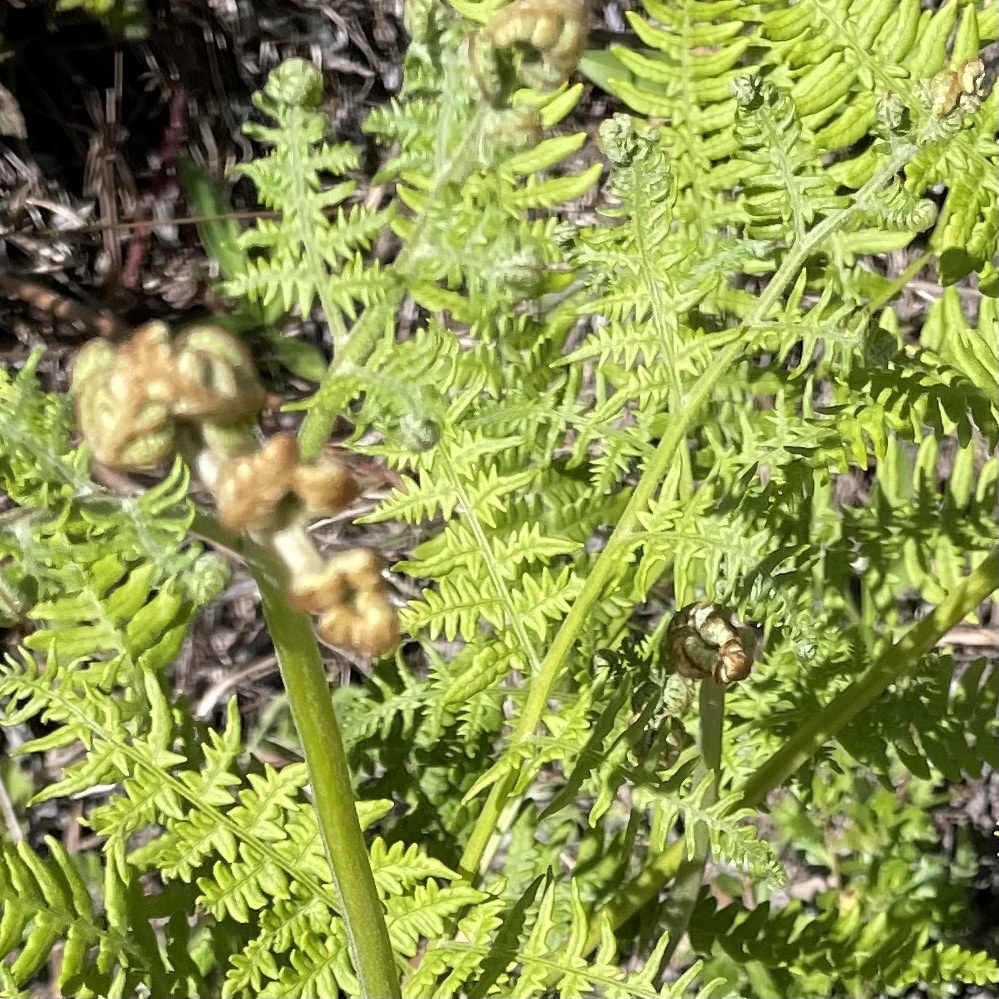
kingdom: Plantae
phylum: Tracheophyta
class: Polypodiopsida
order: Polypodiales
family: Dennstaedtiaceae
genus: Pteridium
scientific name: Pteridium aquilinum
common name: Bracken
